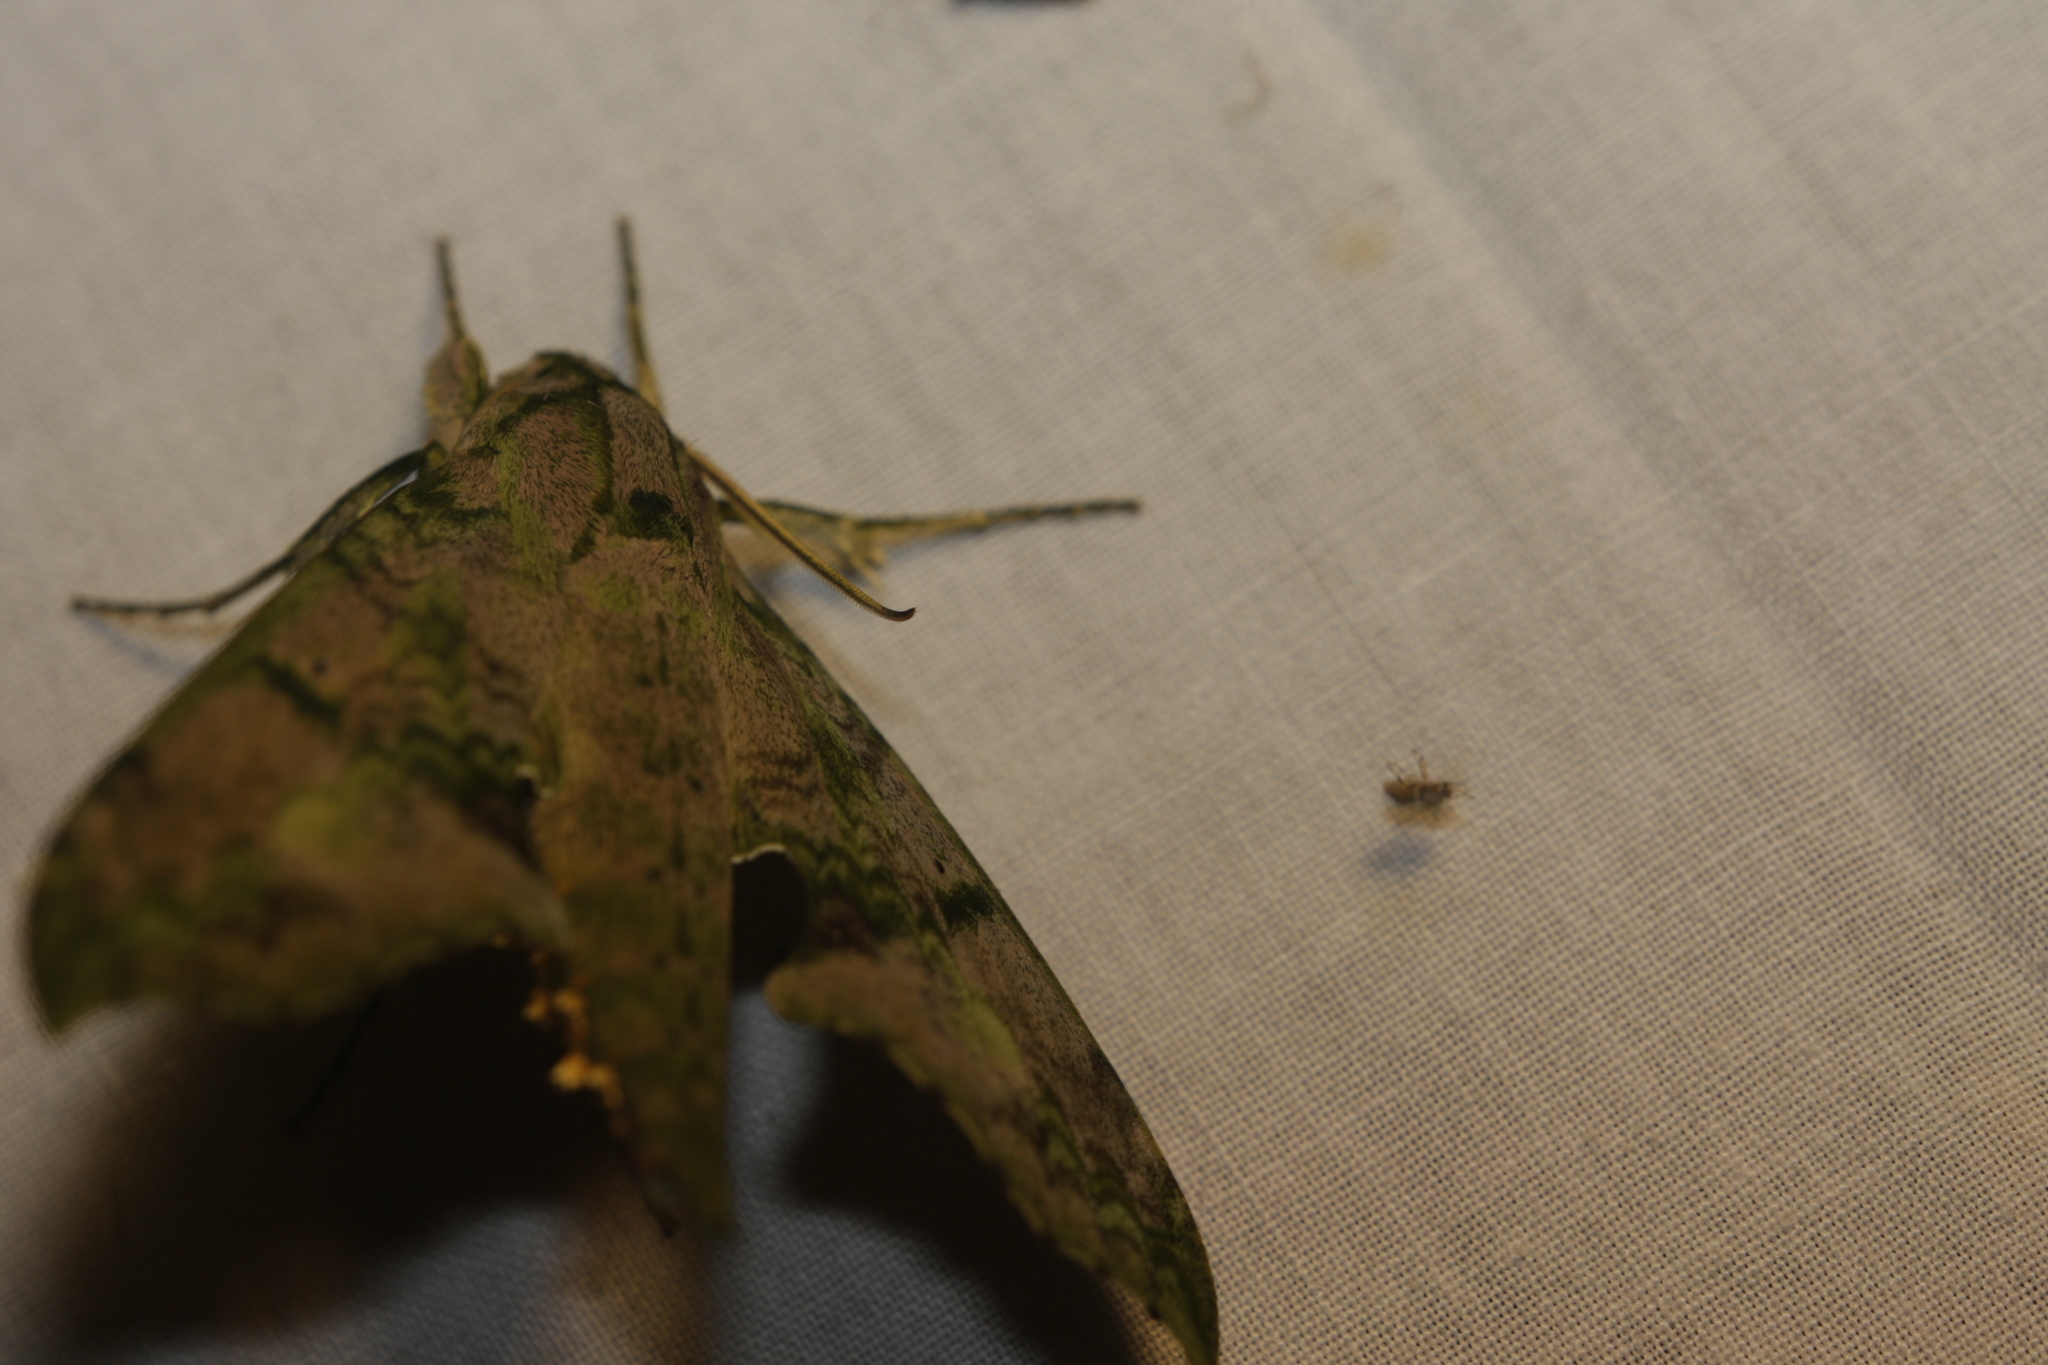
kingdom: Animalia
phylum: Arthropoda
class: Insecta
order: Lepidoptera
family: Sphingidae
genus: Xylophanes
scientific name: Xylophanes zurcheri
